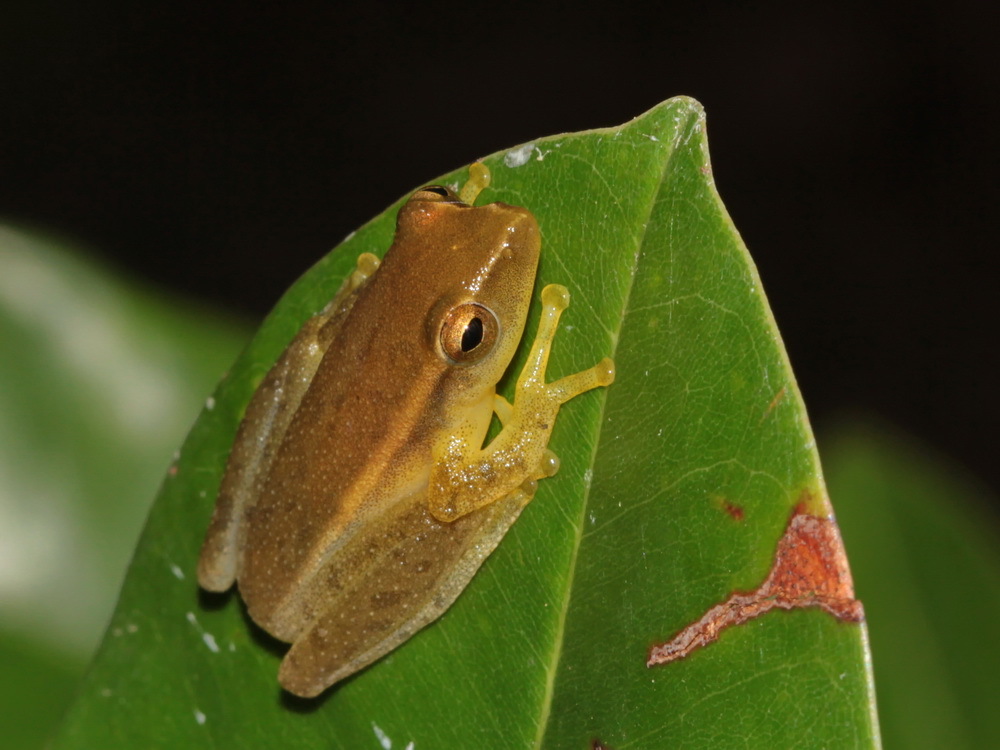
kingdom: Animalia
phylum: Chordata
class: Amphibia
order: Anura
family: Rhacophoridae
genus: Feihyla
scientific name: Feihyla vittata
